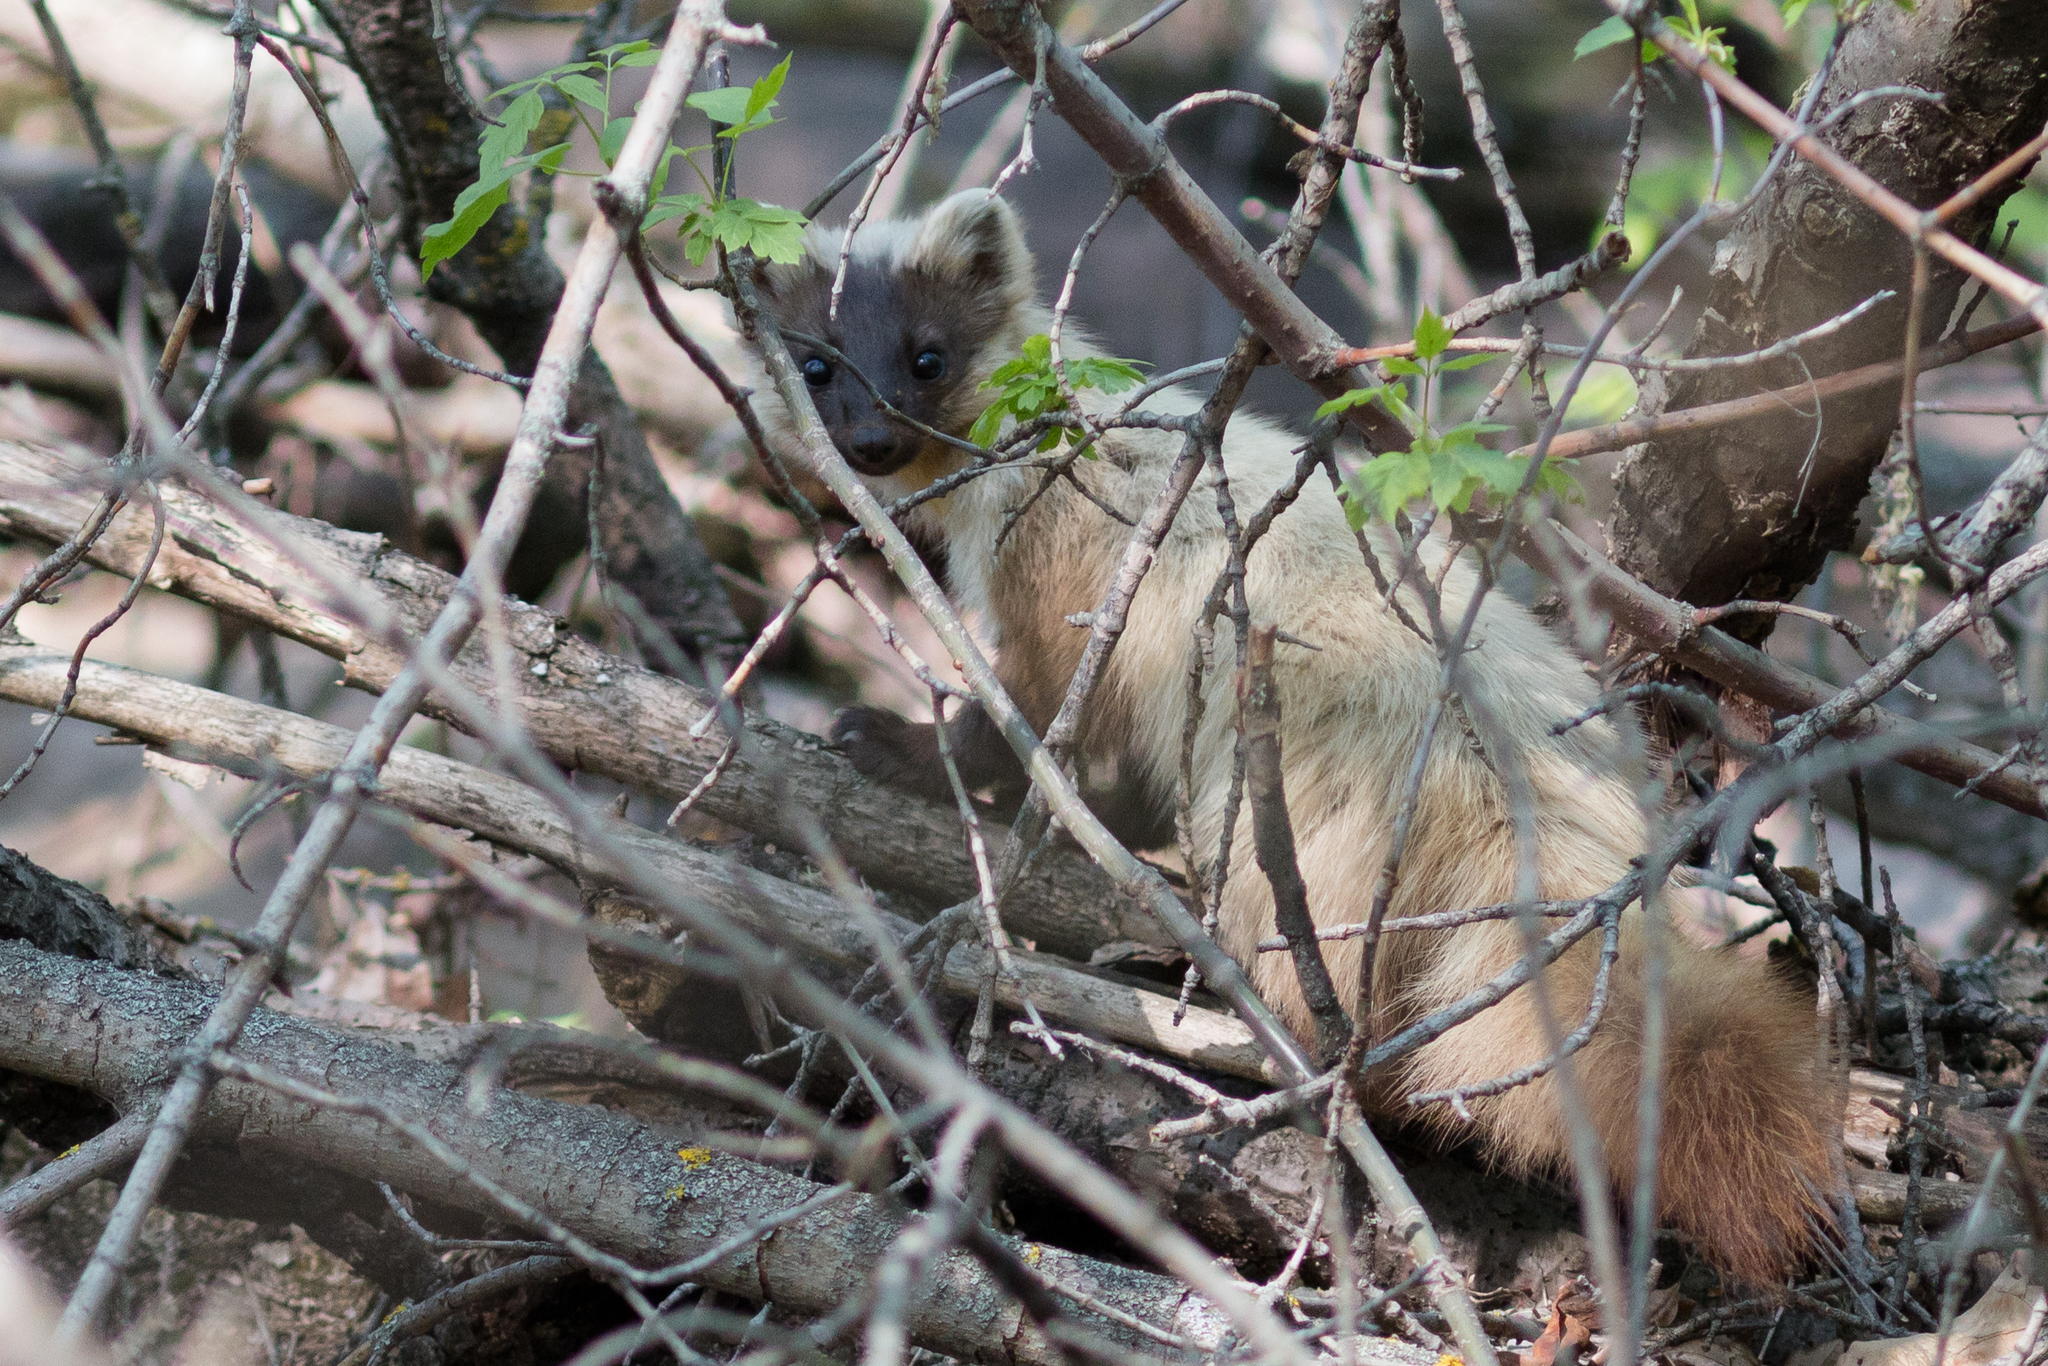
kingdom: Animalia
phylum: Chordata
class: Mammalia
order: Carnivora
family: Mustelidae
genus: Martes
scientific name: Martes martes
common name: European pine marten
